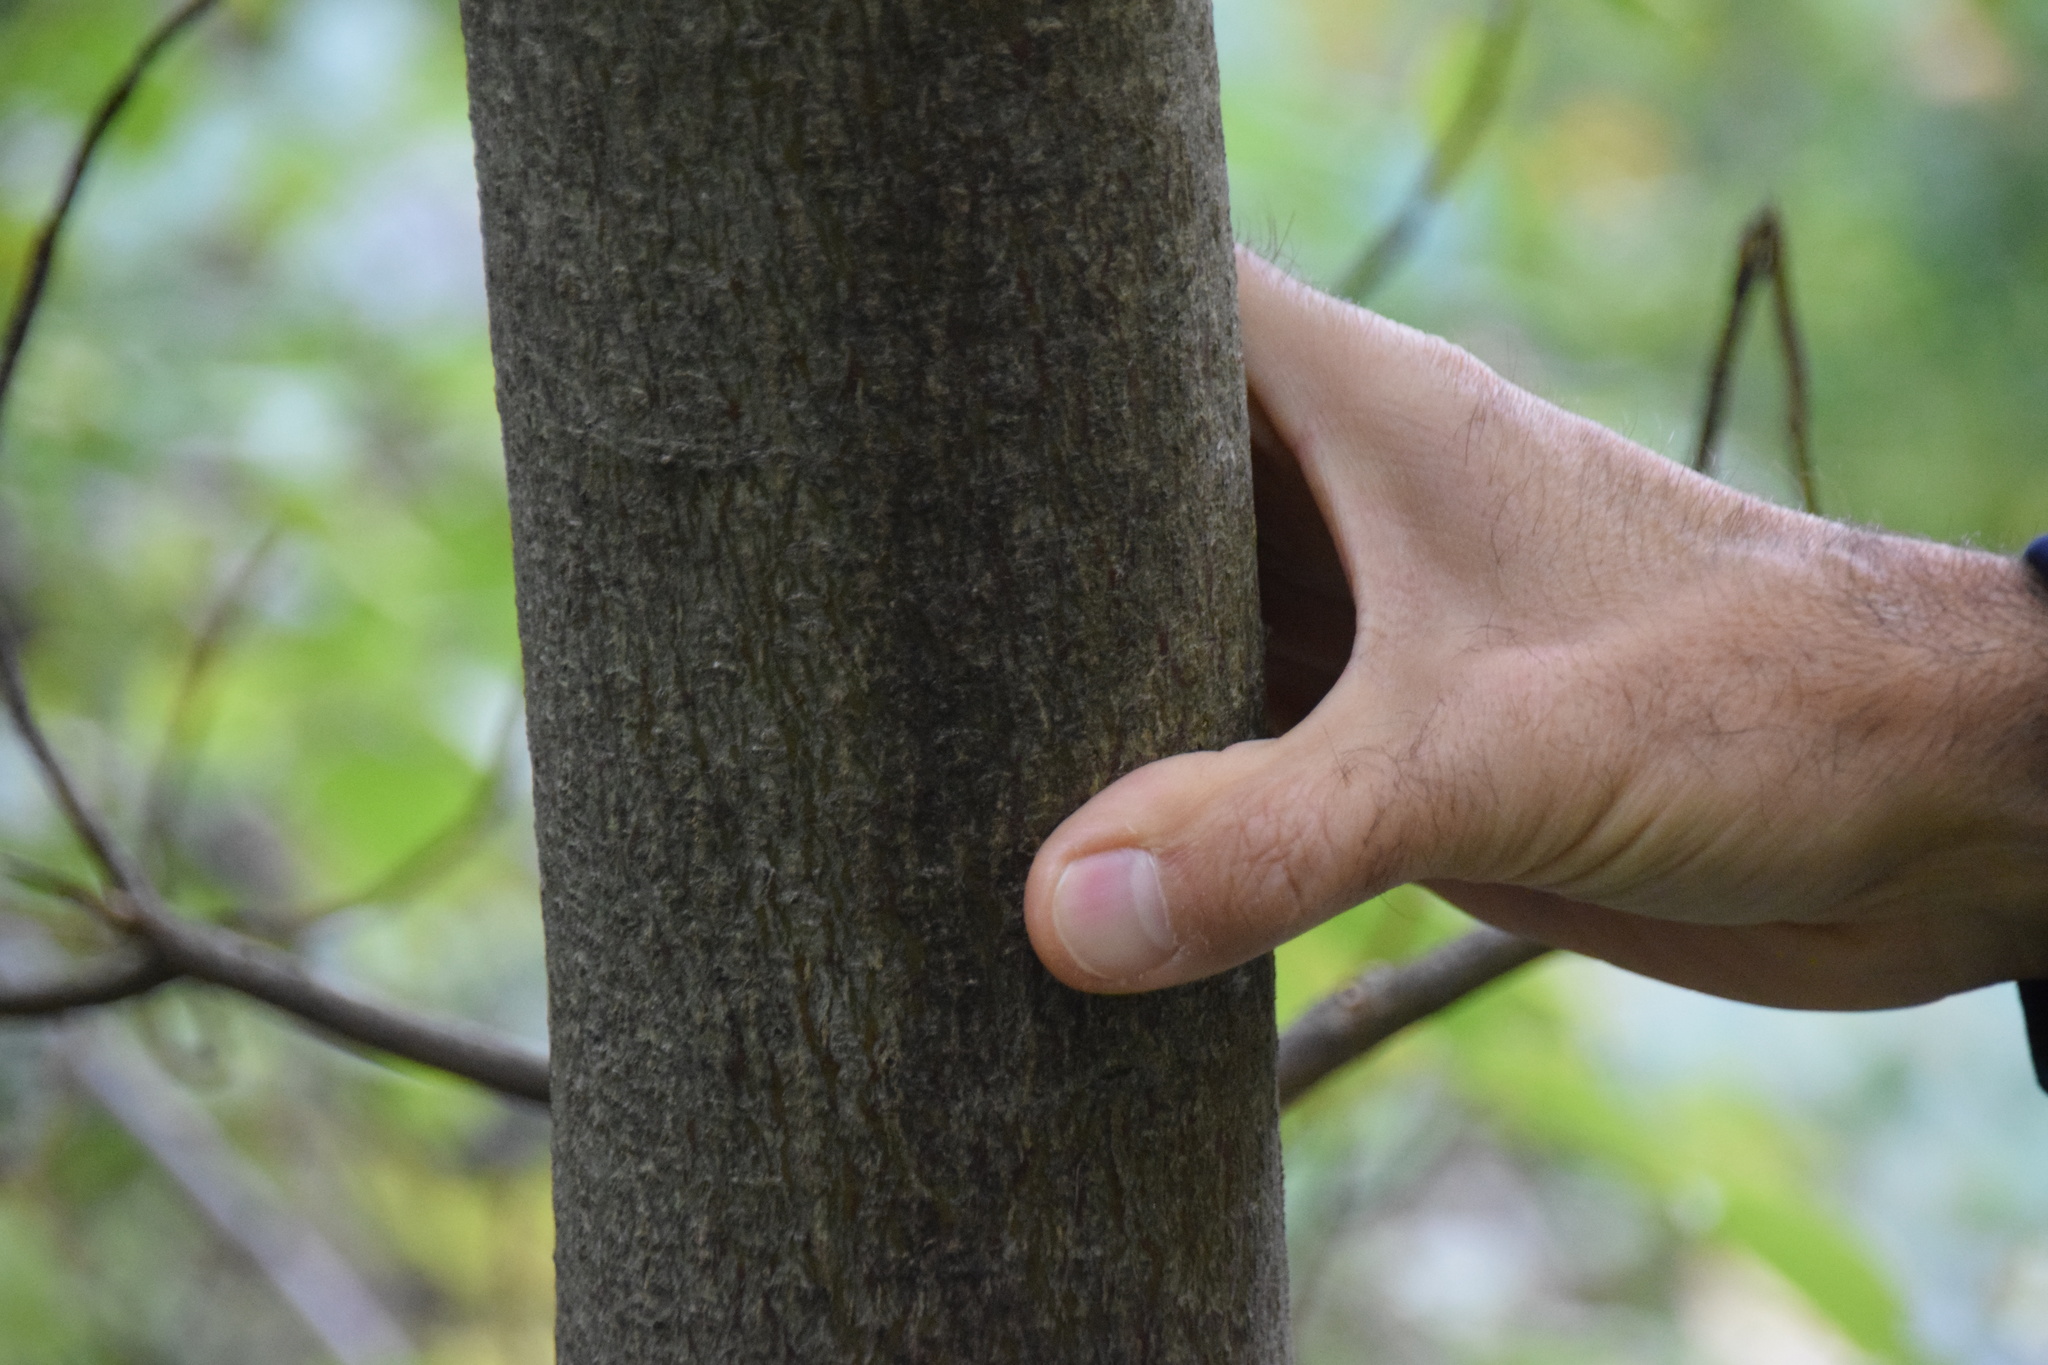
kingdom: Plantae
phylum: Tracheophyta
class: Magnoliopsida
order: Cornales
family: Cornaceae
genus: Cornus
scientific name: Cornus alternifolia
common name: Pagoda dogwood
